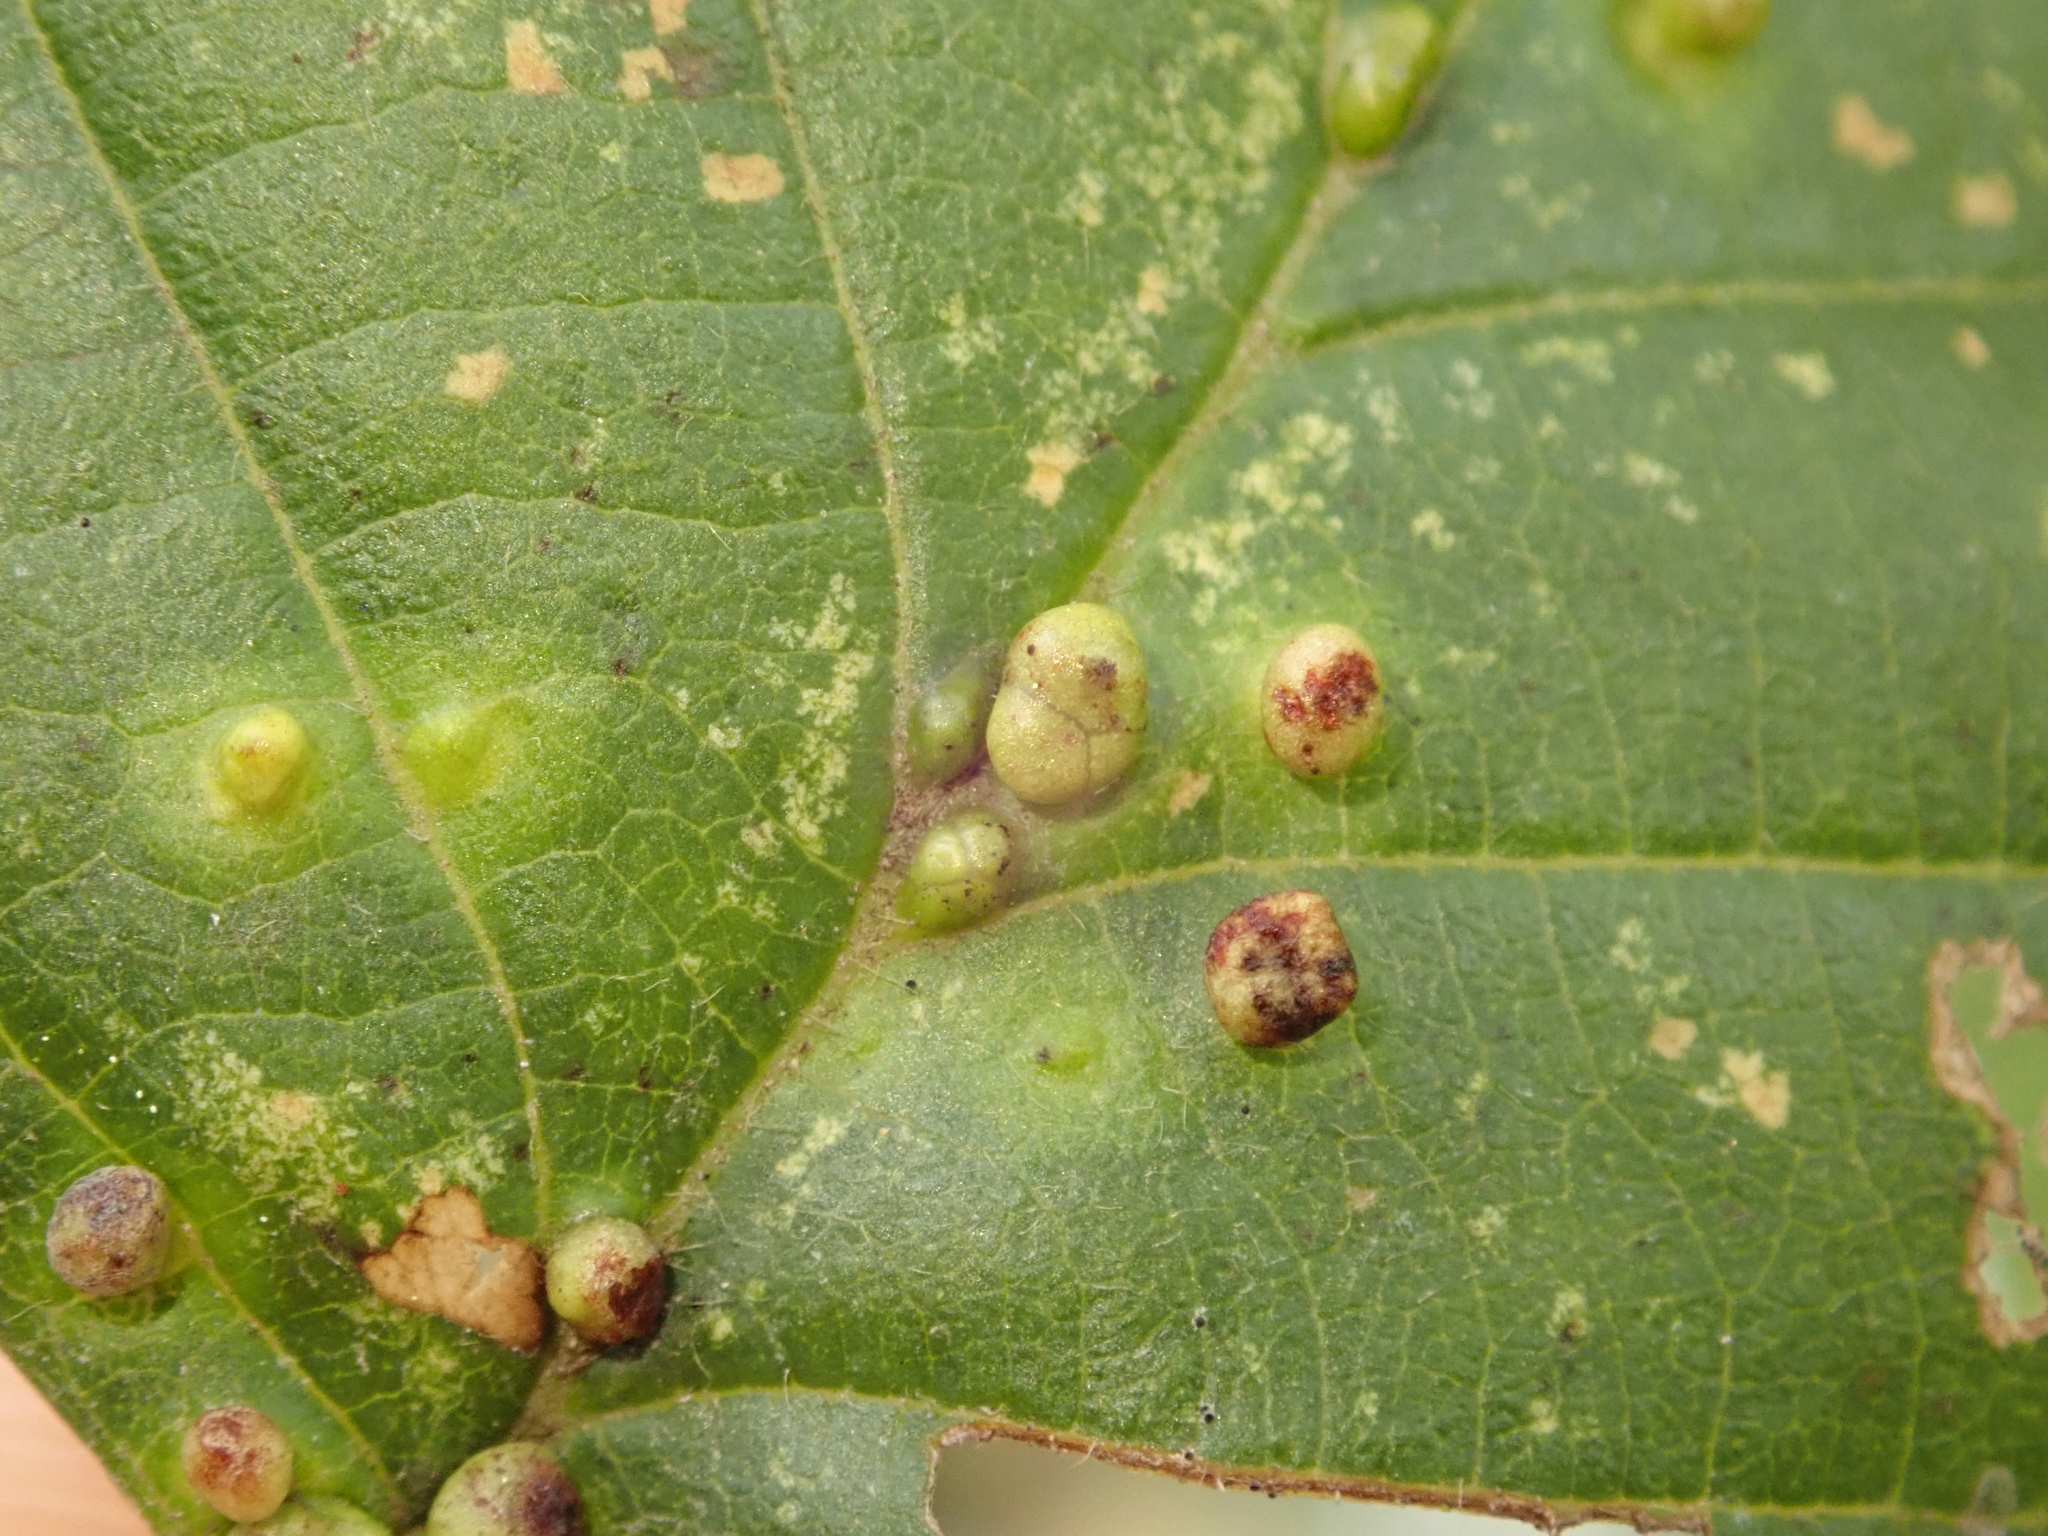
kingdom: Animalia
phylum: Arthropoda
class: Arachnida
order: Trombidiformes
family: Eriophyidae
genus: Eriophyes
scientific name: Eriophyes laevis
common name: Alder leaf gall mite
